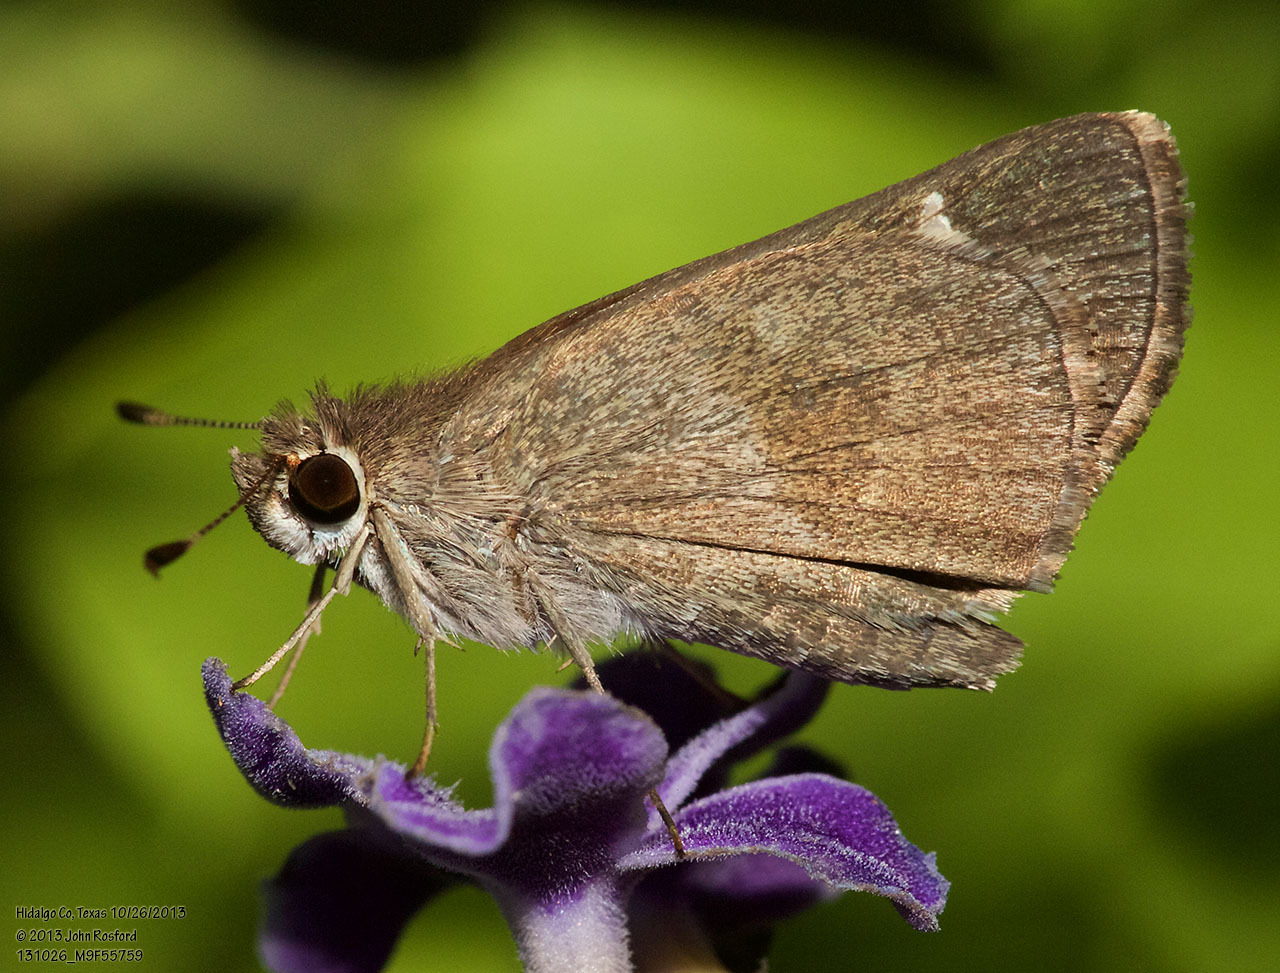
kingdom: Animalia
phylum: Arthropoda
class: Insecta
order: Lepidoptera
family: Hesperiidae
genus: Lerodea
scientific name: Lerodea arabus
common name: Violet-clouded skipper
